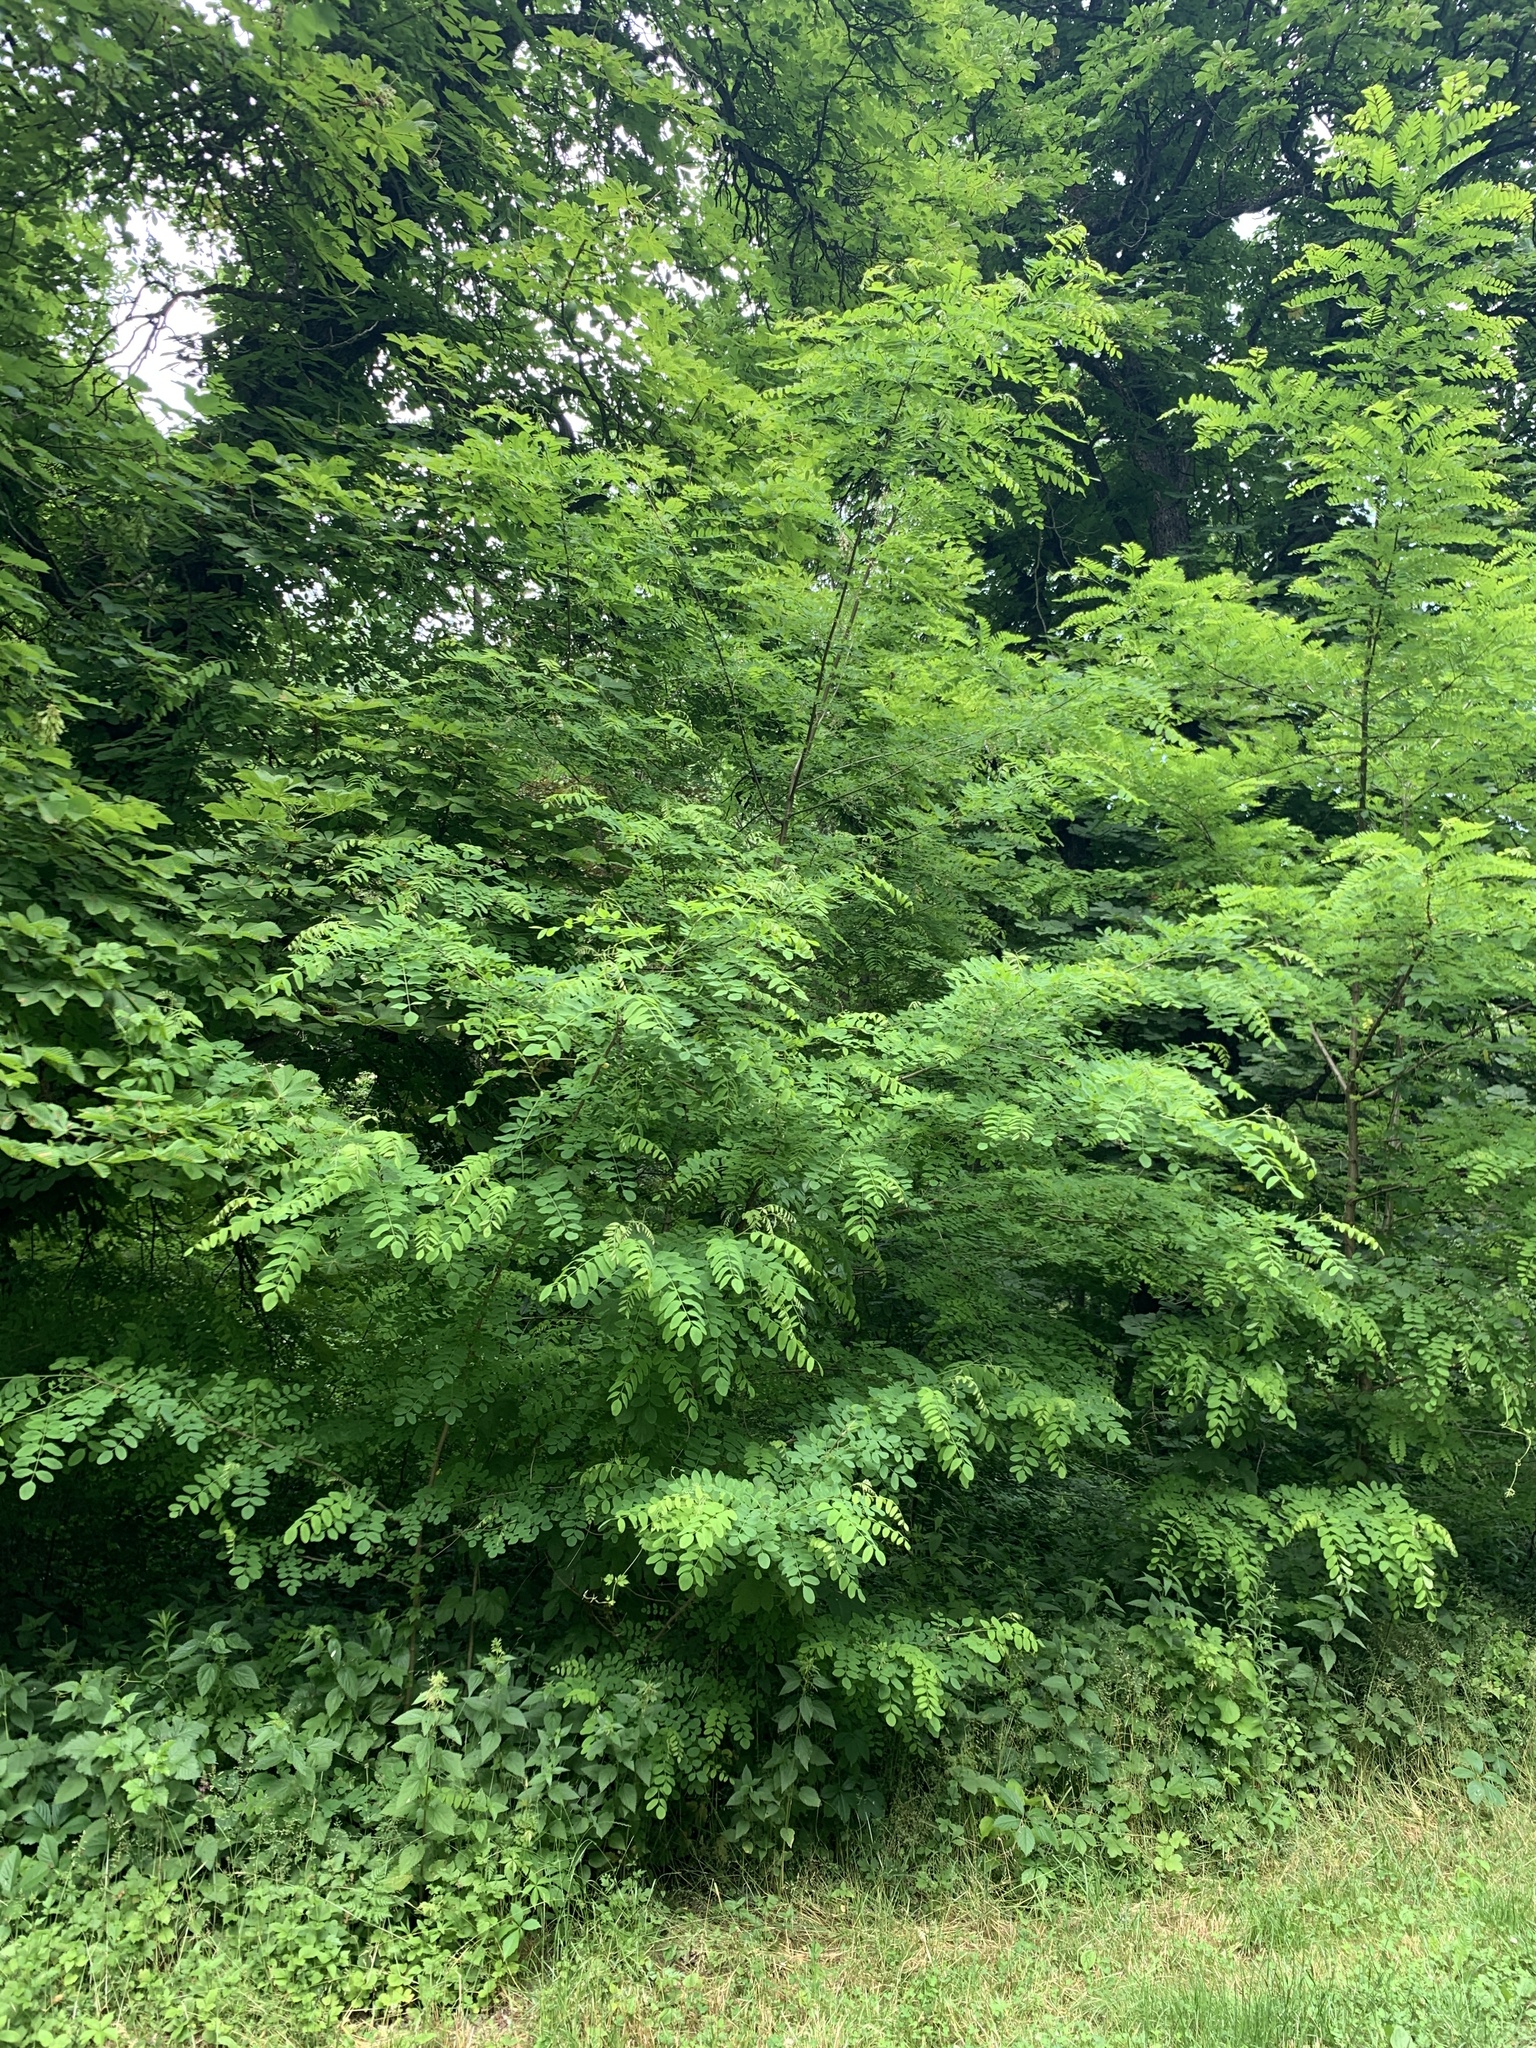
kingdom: Plantae
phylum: Tracheophyta
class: Magnoliopsida
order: Fabales
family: Fabaceae
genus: Robinia
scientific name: Robinia pseudoacacia
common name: Black locust
